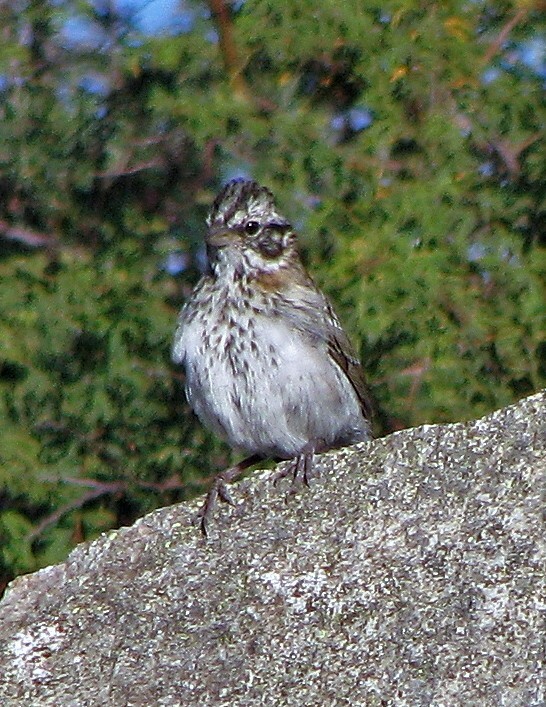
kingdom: Animalia
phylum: Chordata
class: Aves
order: Passeriformes
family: Passerellidae
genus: Zonotrichia
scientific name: Zonotrichia capensis
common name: Rufous-collared sparrow
